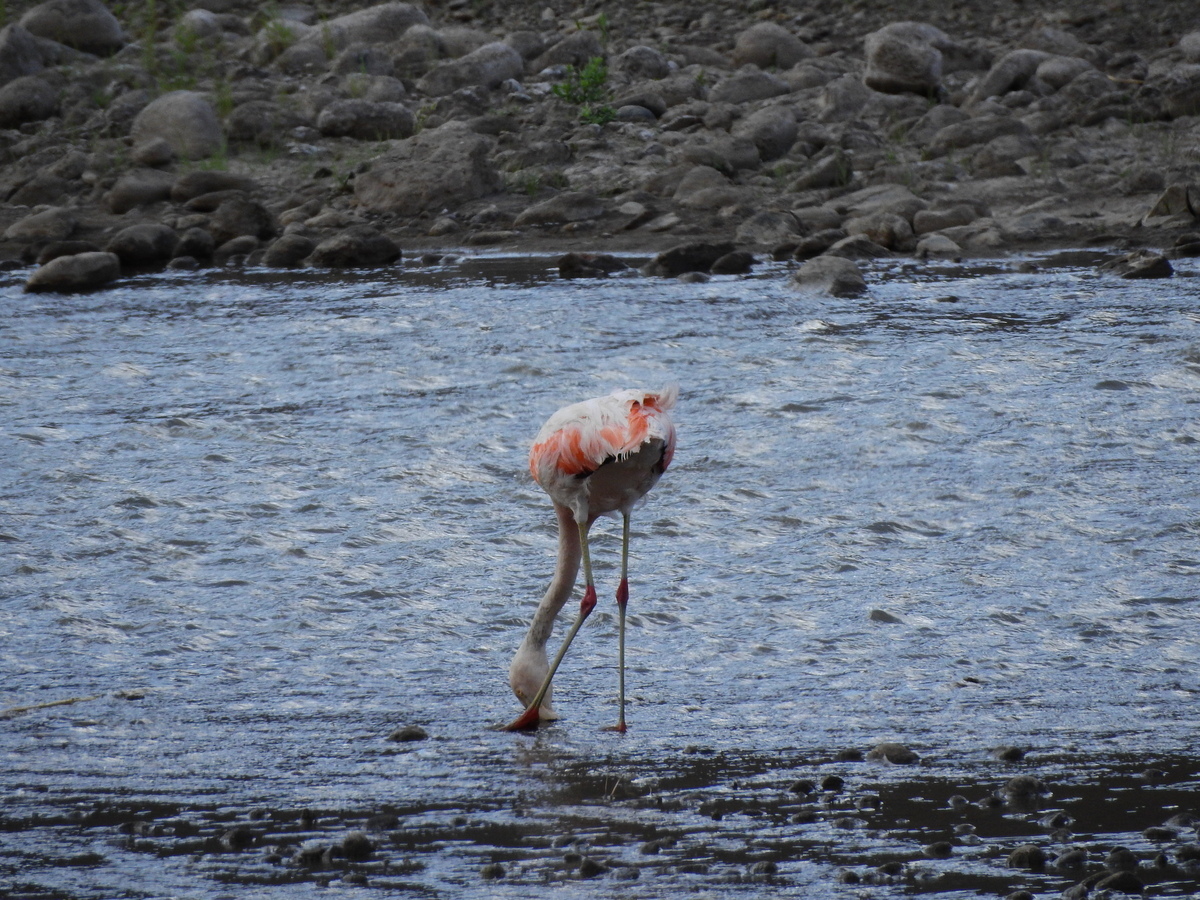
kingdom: Animalia
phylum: Chordata
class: Aves
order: Phoenicopteriformes
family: Phoenicopteridae
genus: Phoenicopterus
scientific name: Phoenicopterus chilensis
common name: Chilean flamingo
